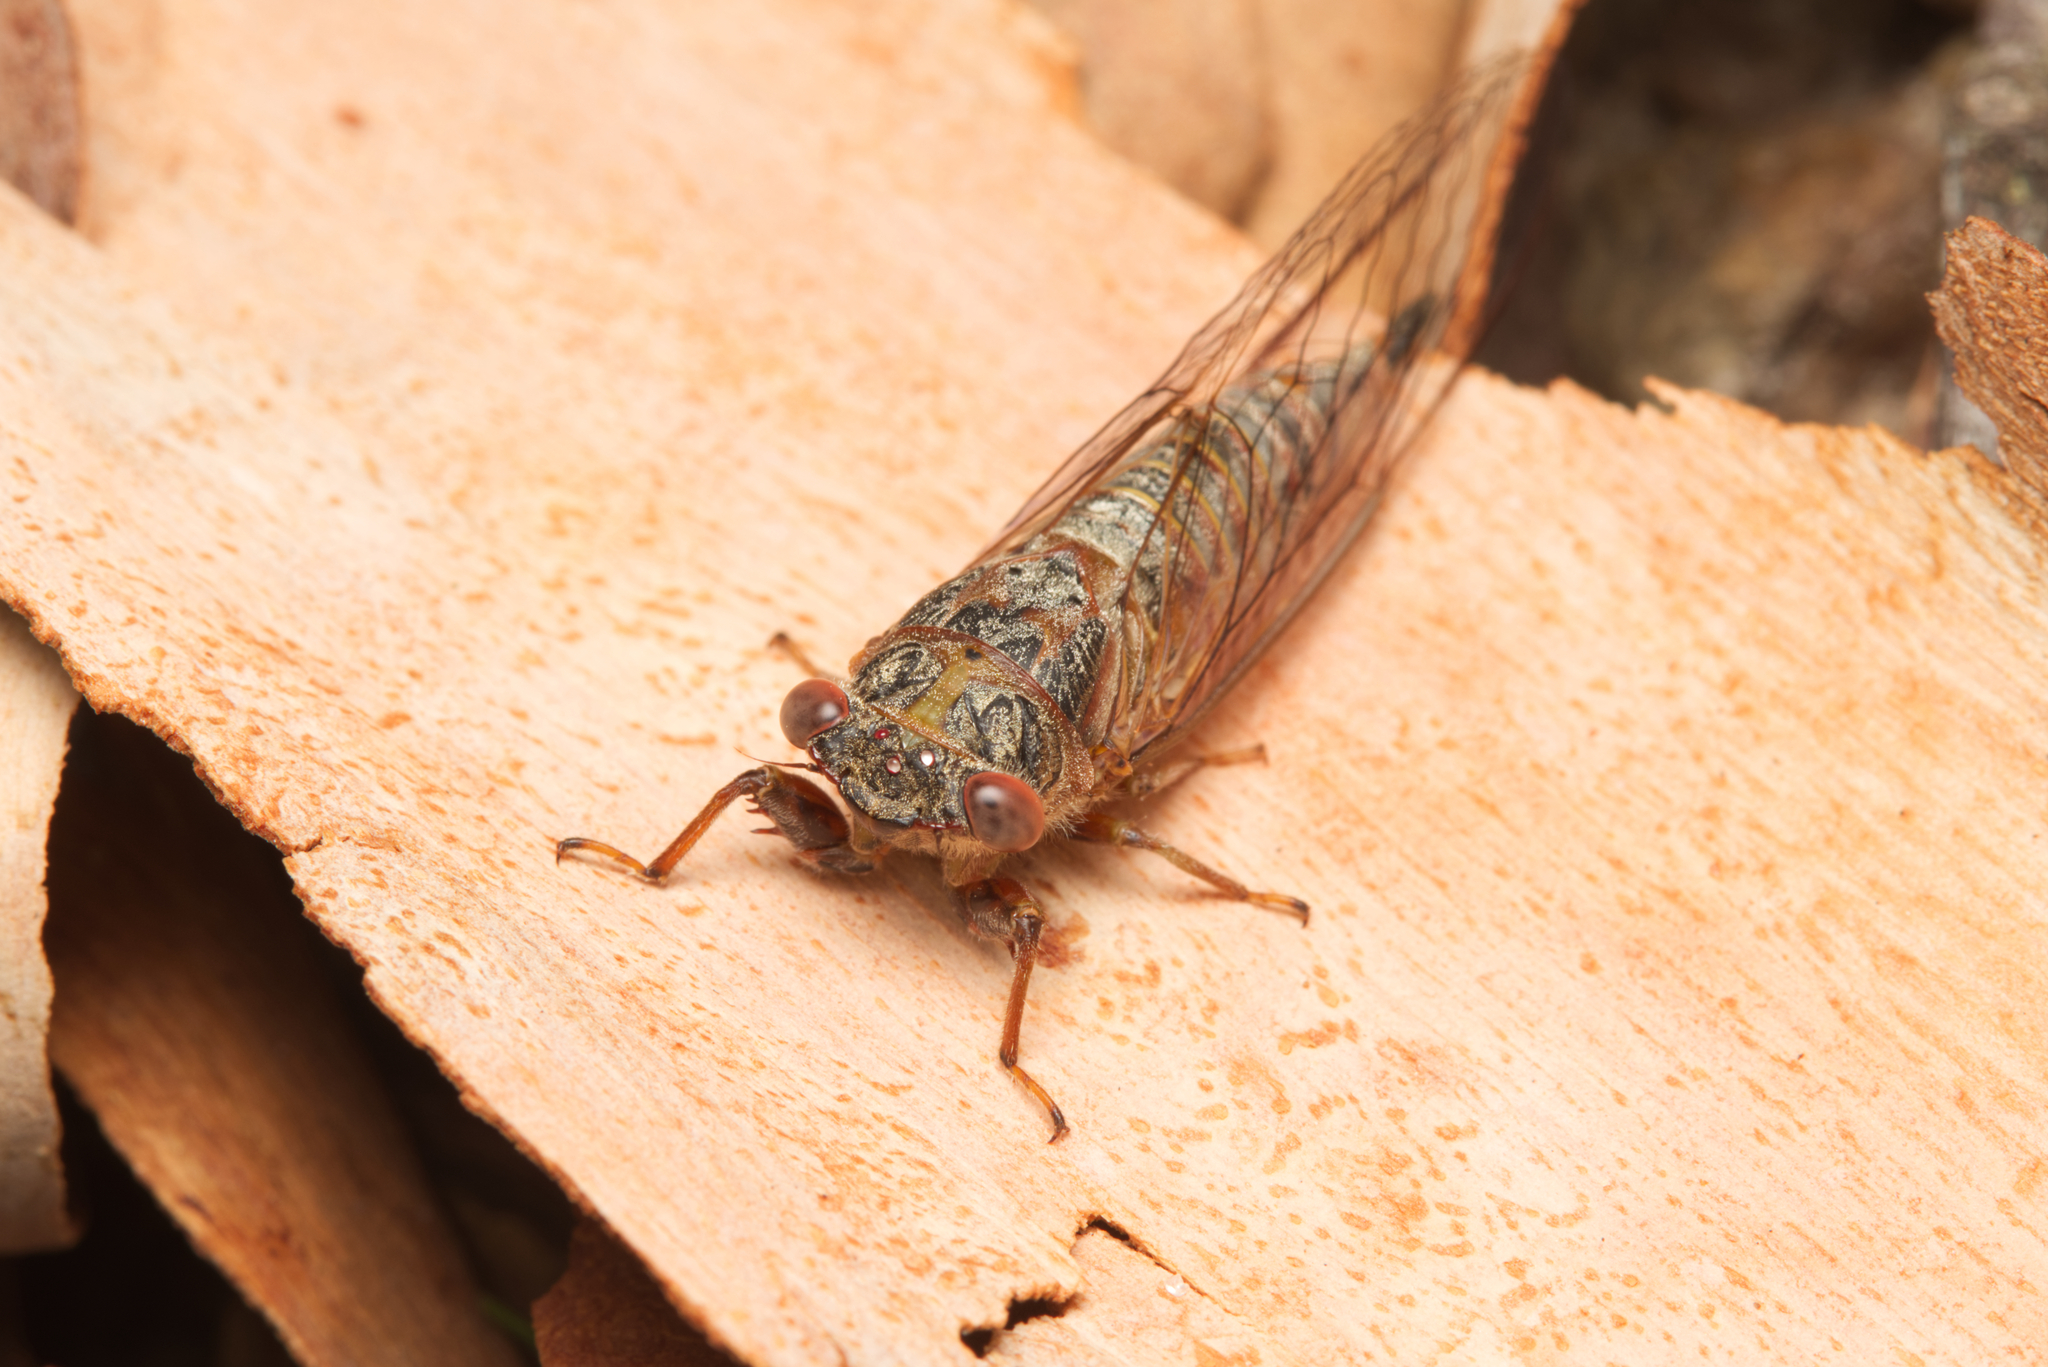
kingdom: Animalia
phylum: Arthropoda
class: Insecta
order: Hemiptera
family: Cicadidae
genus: Palapsalta
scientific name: Palapsalta circumdata
